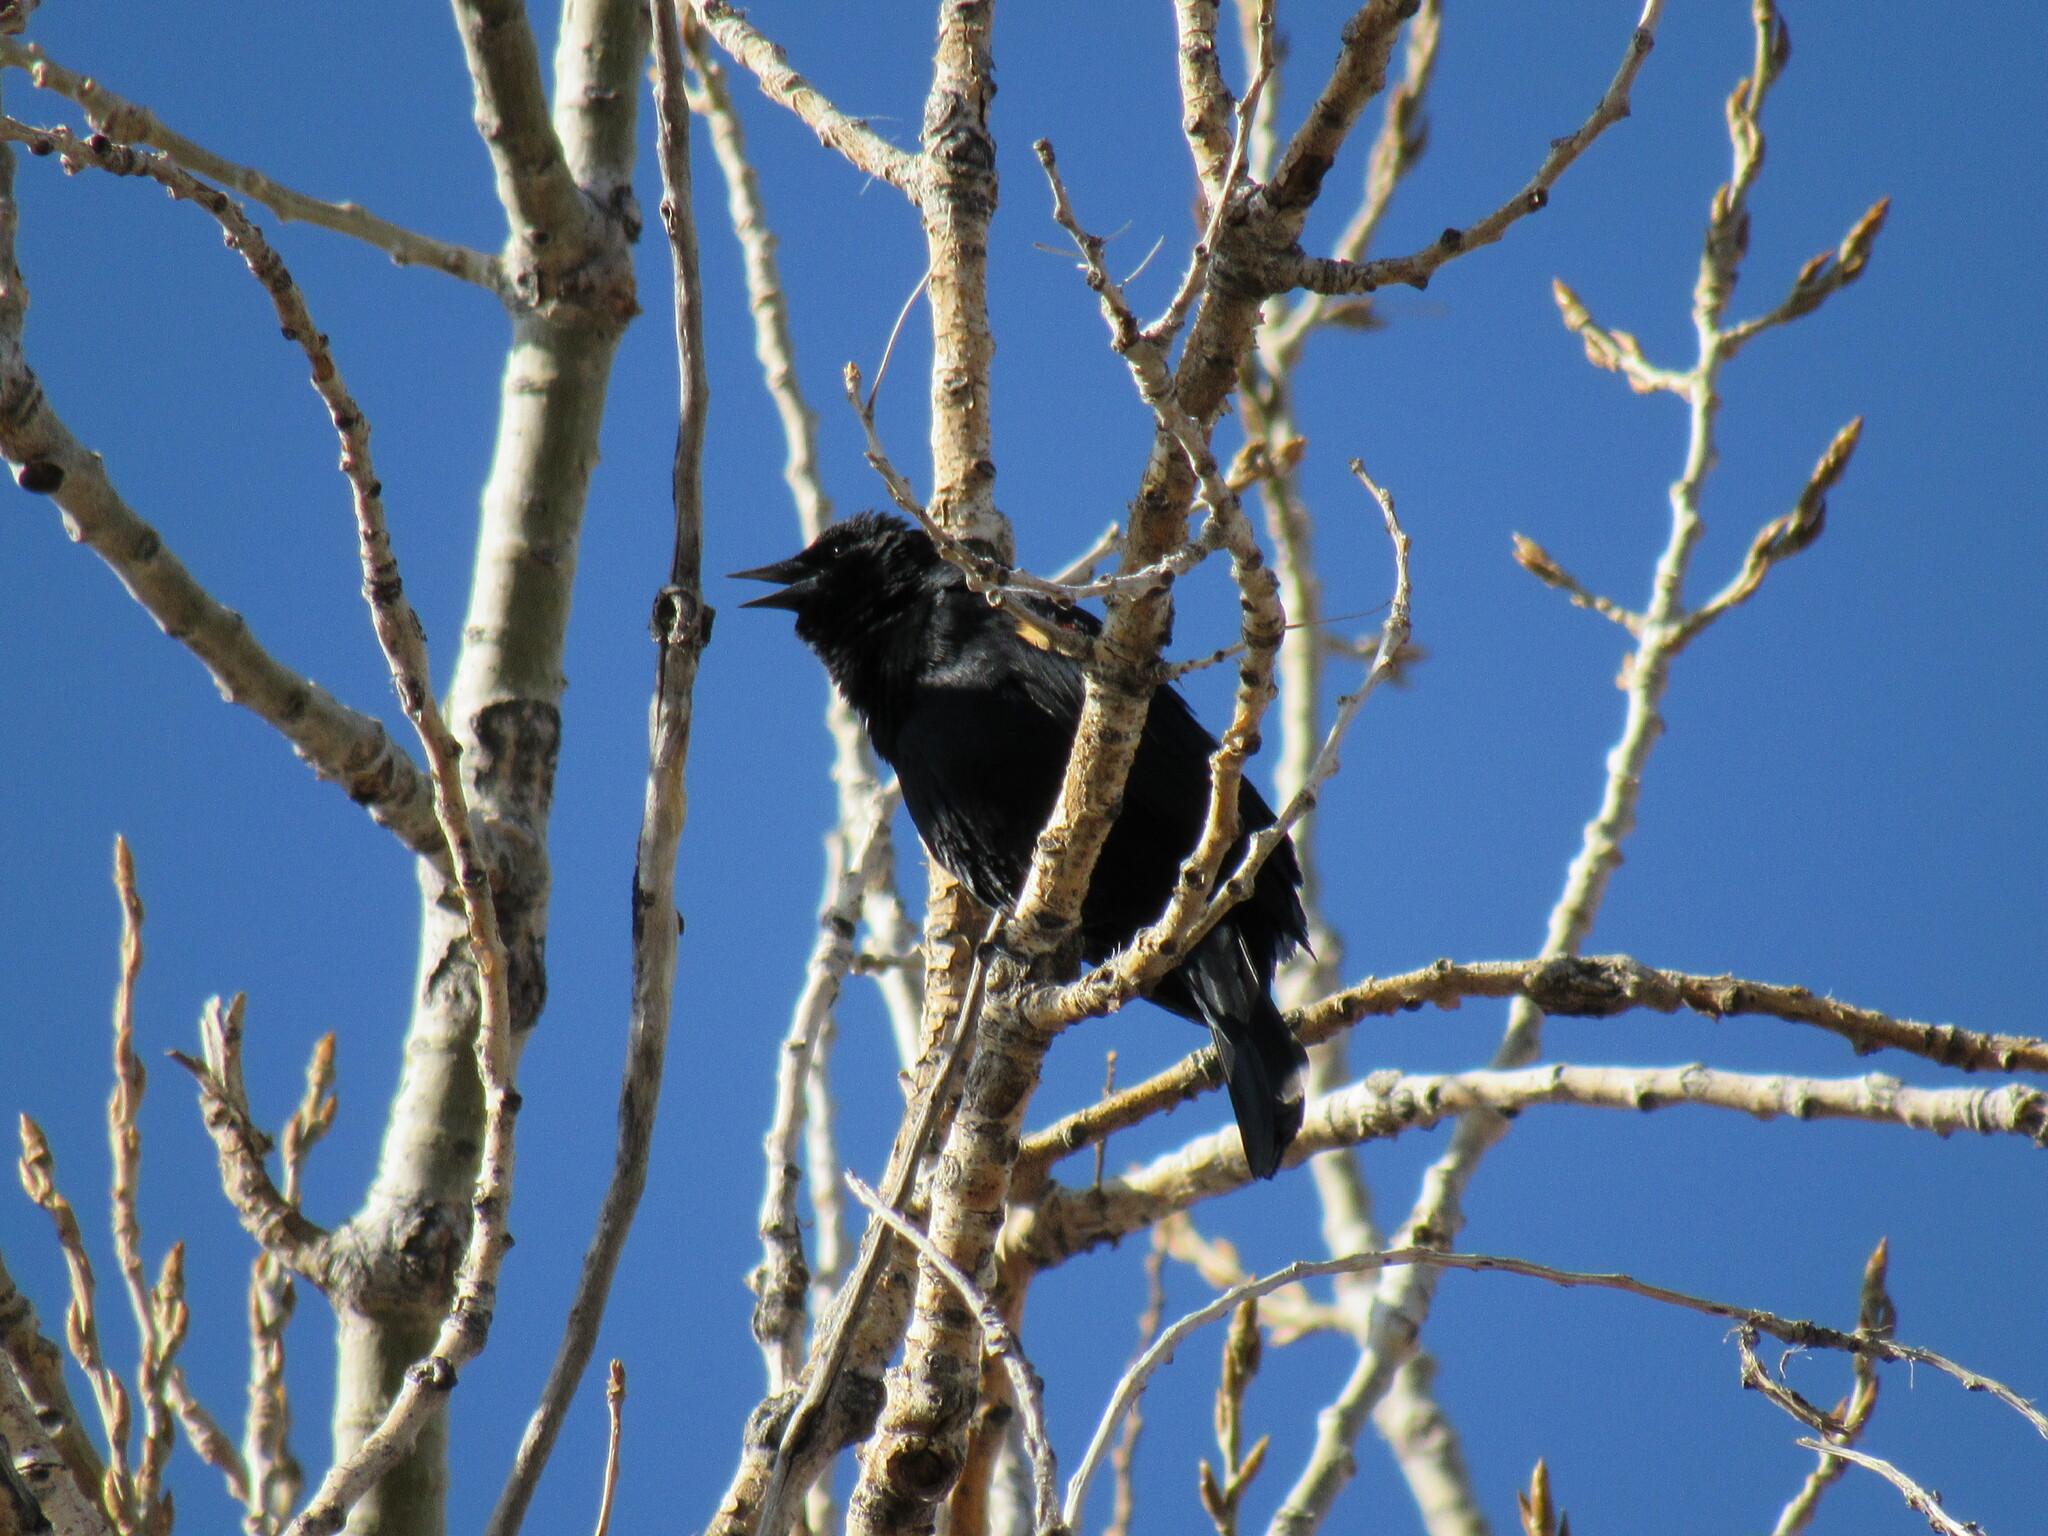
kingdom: Animalia
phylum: Chordata
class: Aves
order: Passeriformes
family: Icteridae
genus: Agelaius
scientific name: Agelaius phoeniceus
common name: Red-winged blackbird
